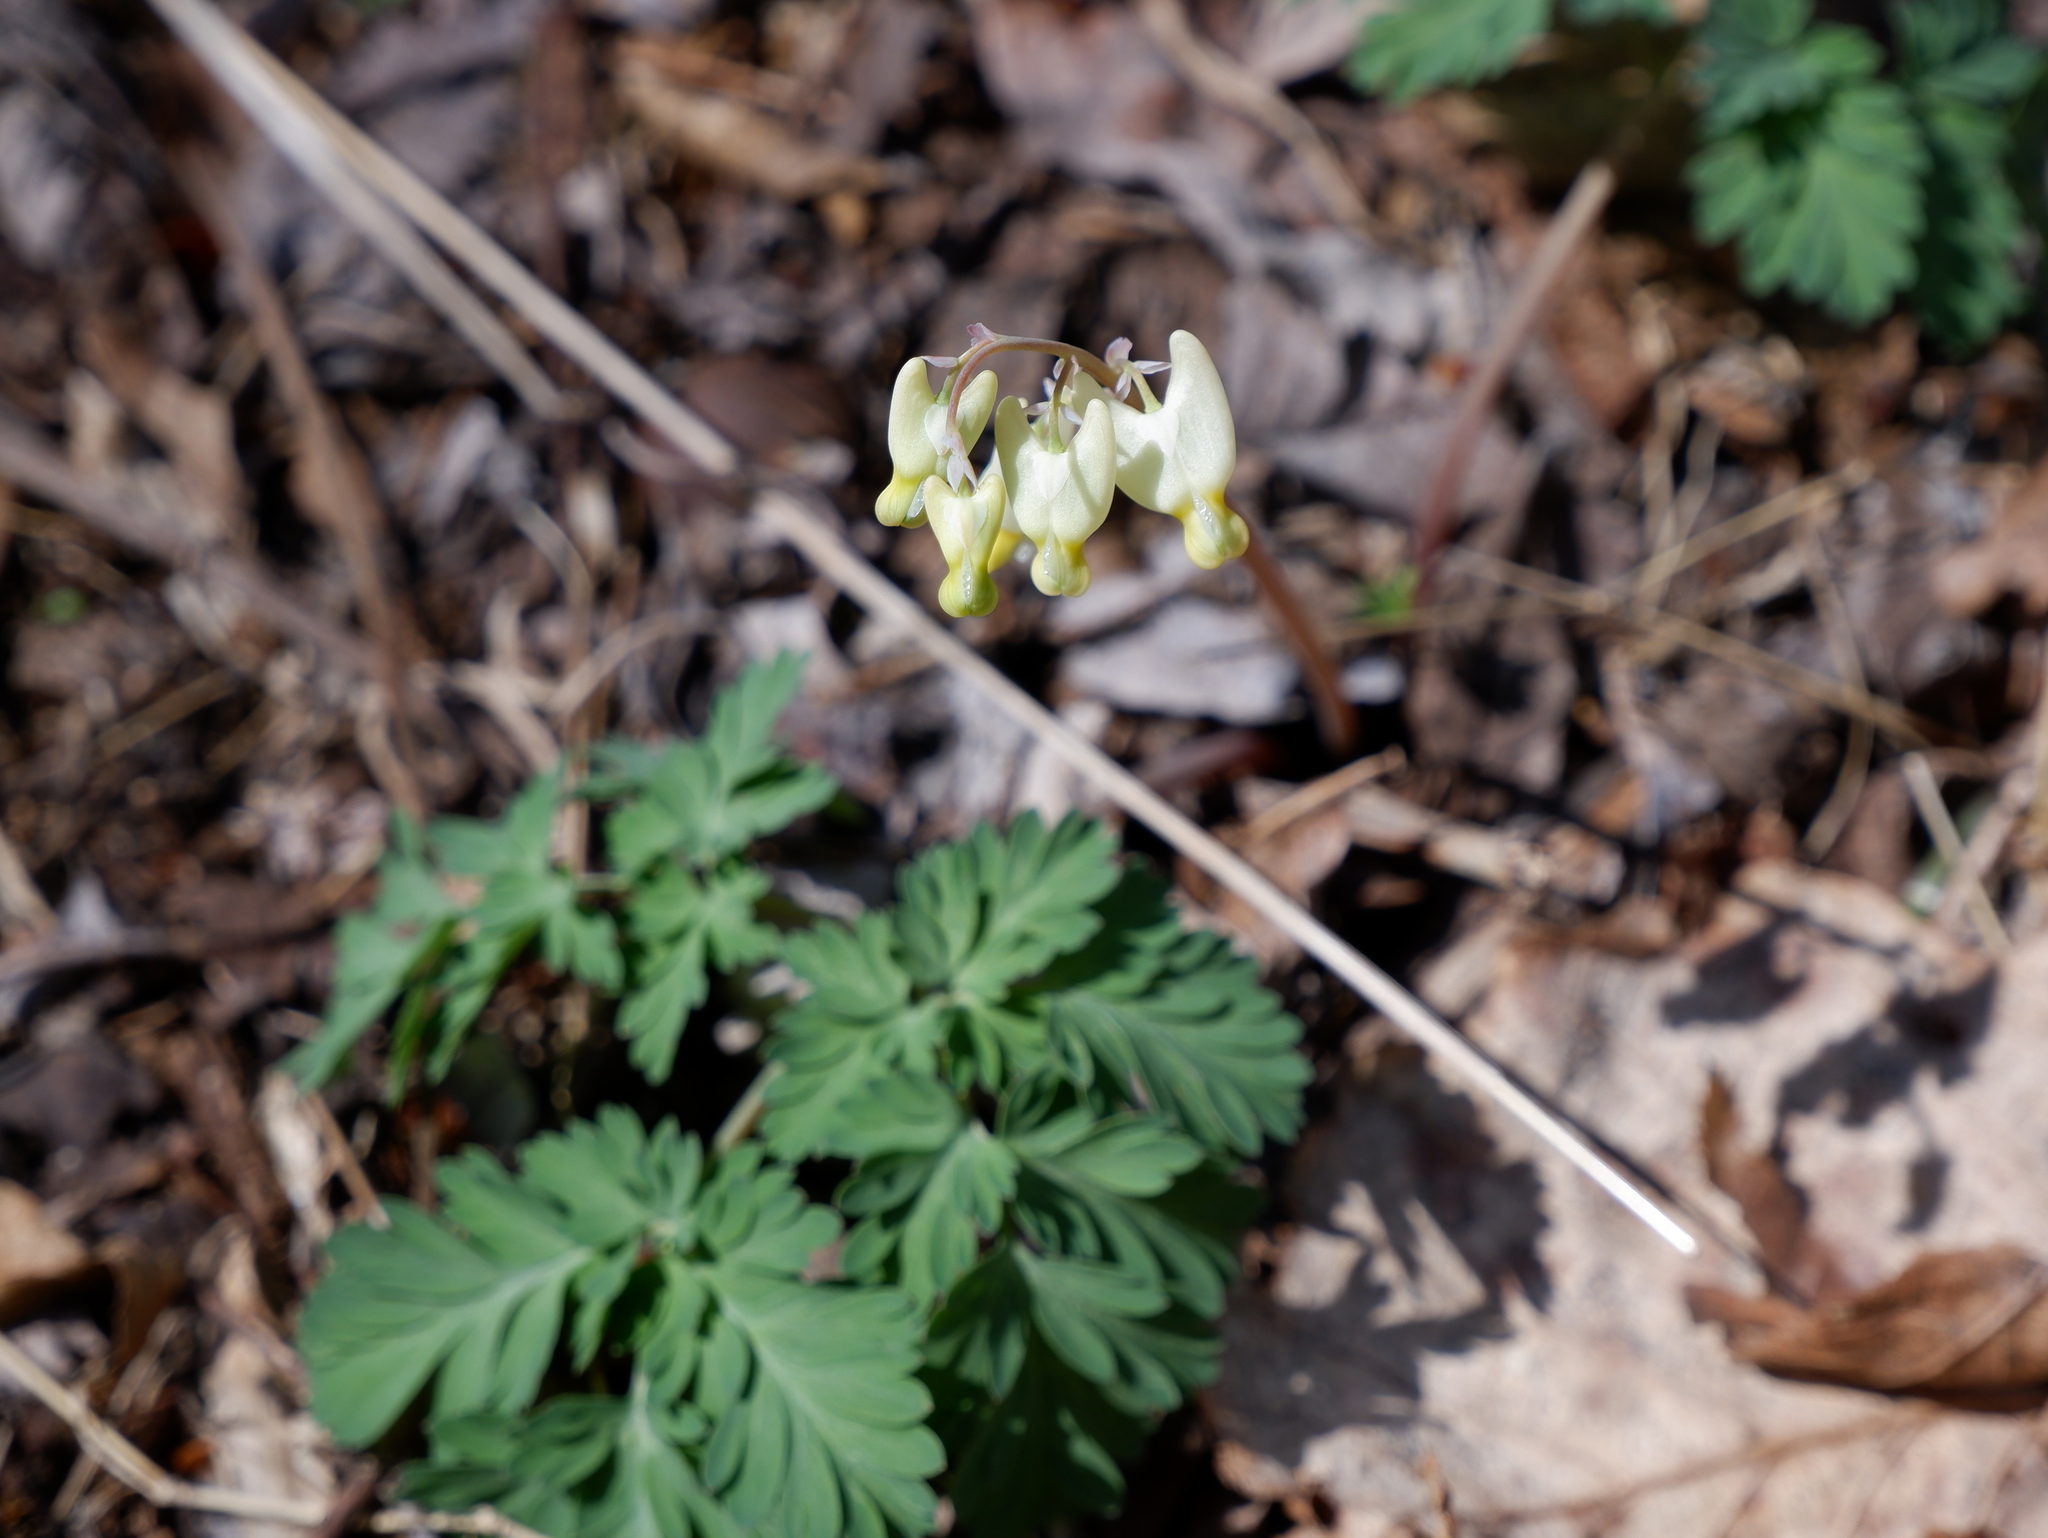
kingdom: Plantae
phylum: Tracheophyta
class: Magnoliopsida
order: Ranunculales
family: Papaveraceae
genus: Dicentra
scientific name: Dicentra cucullaria
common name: Dutchman's breeches
